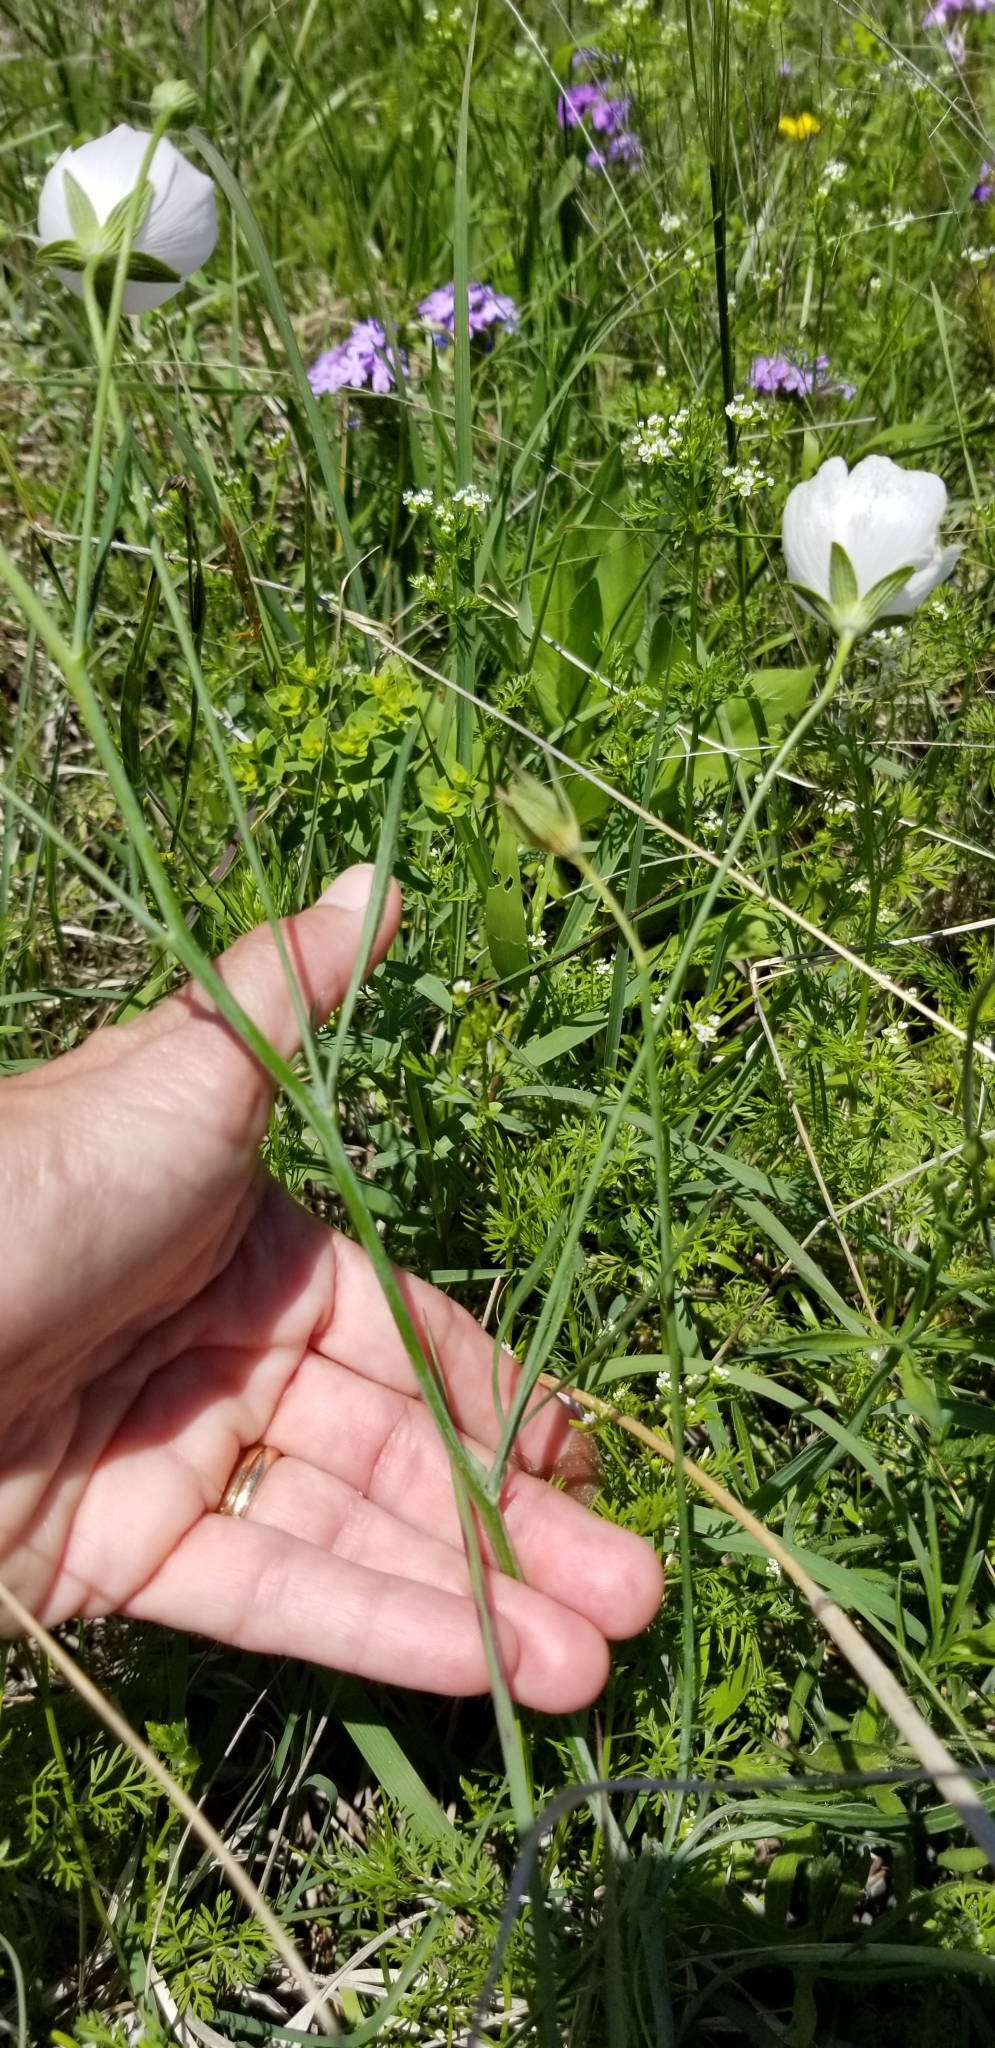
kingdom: Plantae
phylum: Tracheophyta
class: Magnoliopsida
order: Malvales
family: Malvaceae
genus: Callirhoe
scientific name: Callirhoe pedata
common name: Finger poppy-mallow
